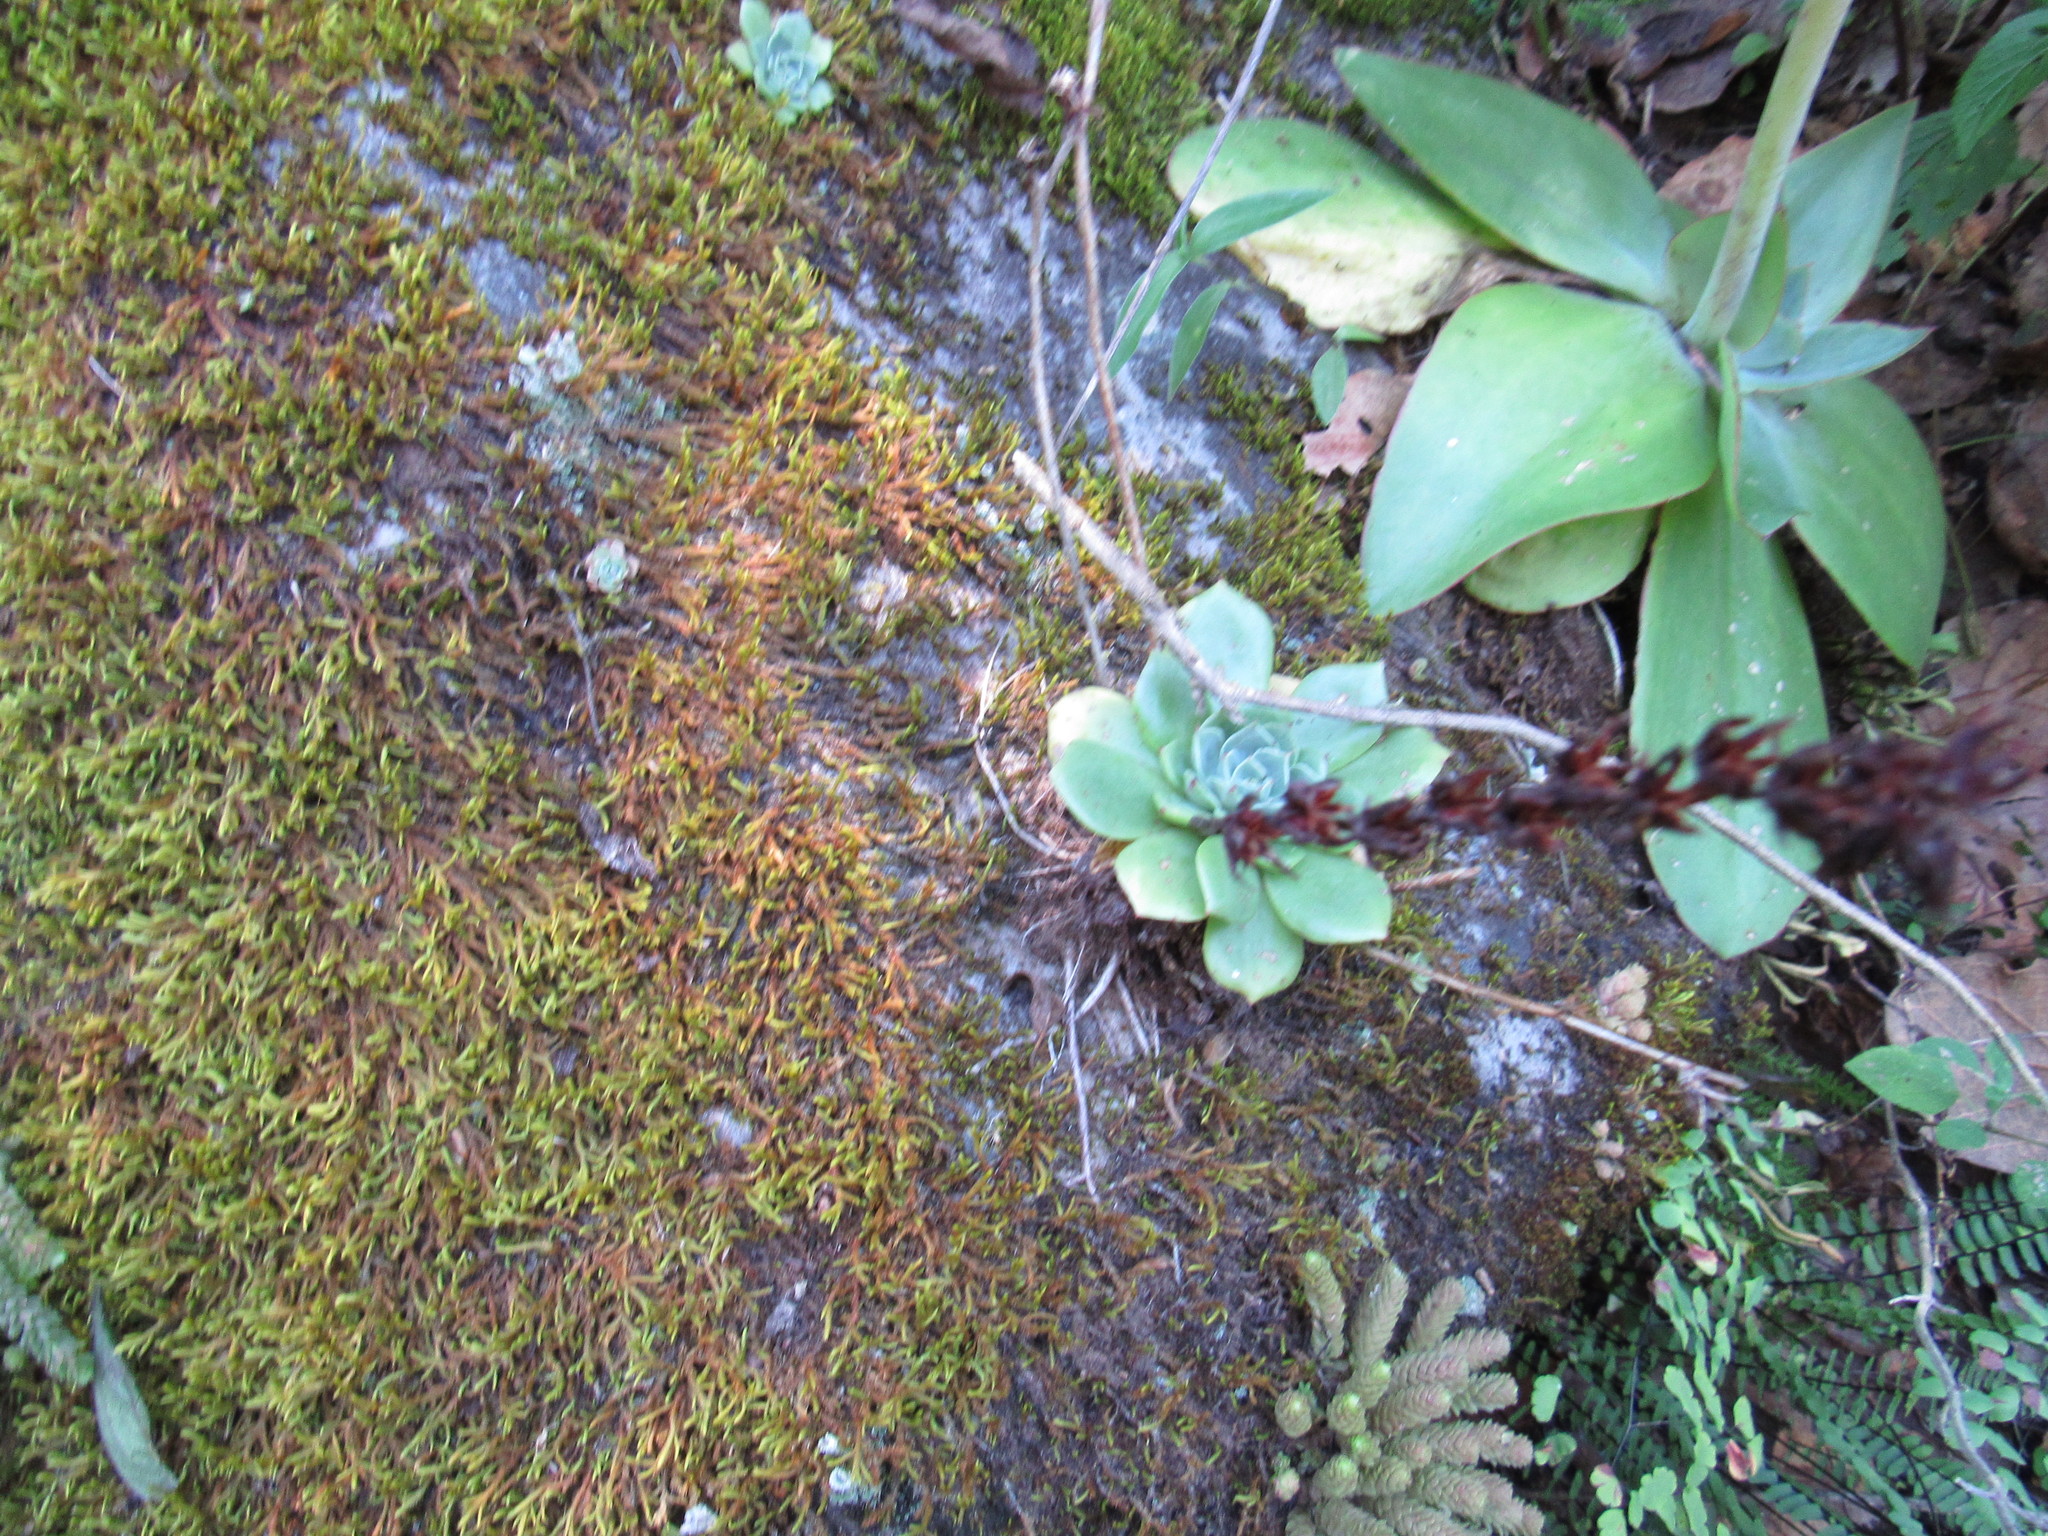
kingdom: Plantae
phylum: Tracheophyta
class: Magnoliopsida
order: Saxifragales
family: Crassulaceae
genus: Echeveria
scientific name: Echeveria secunda
